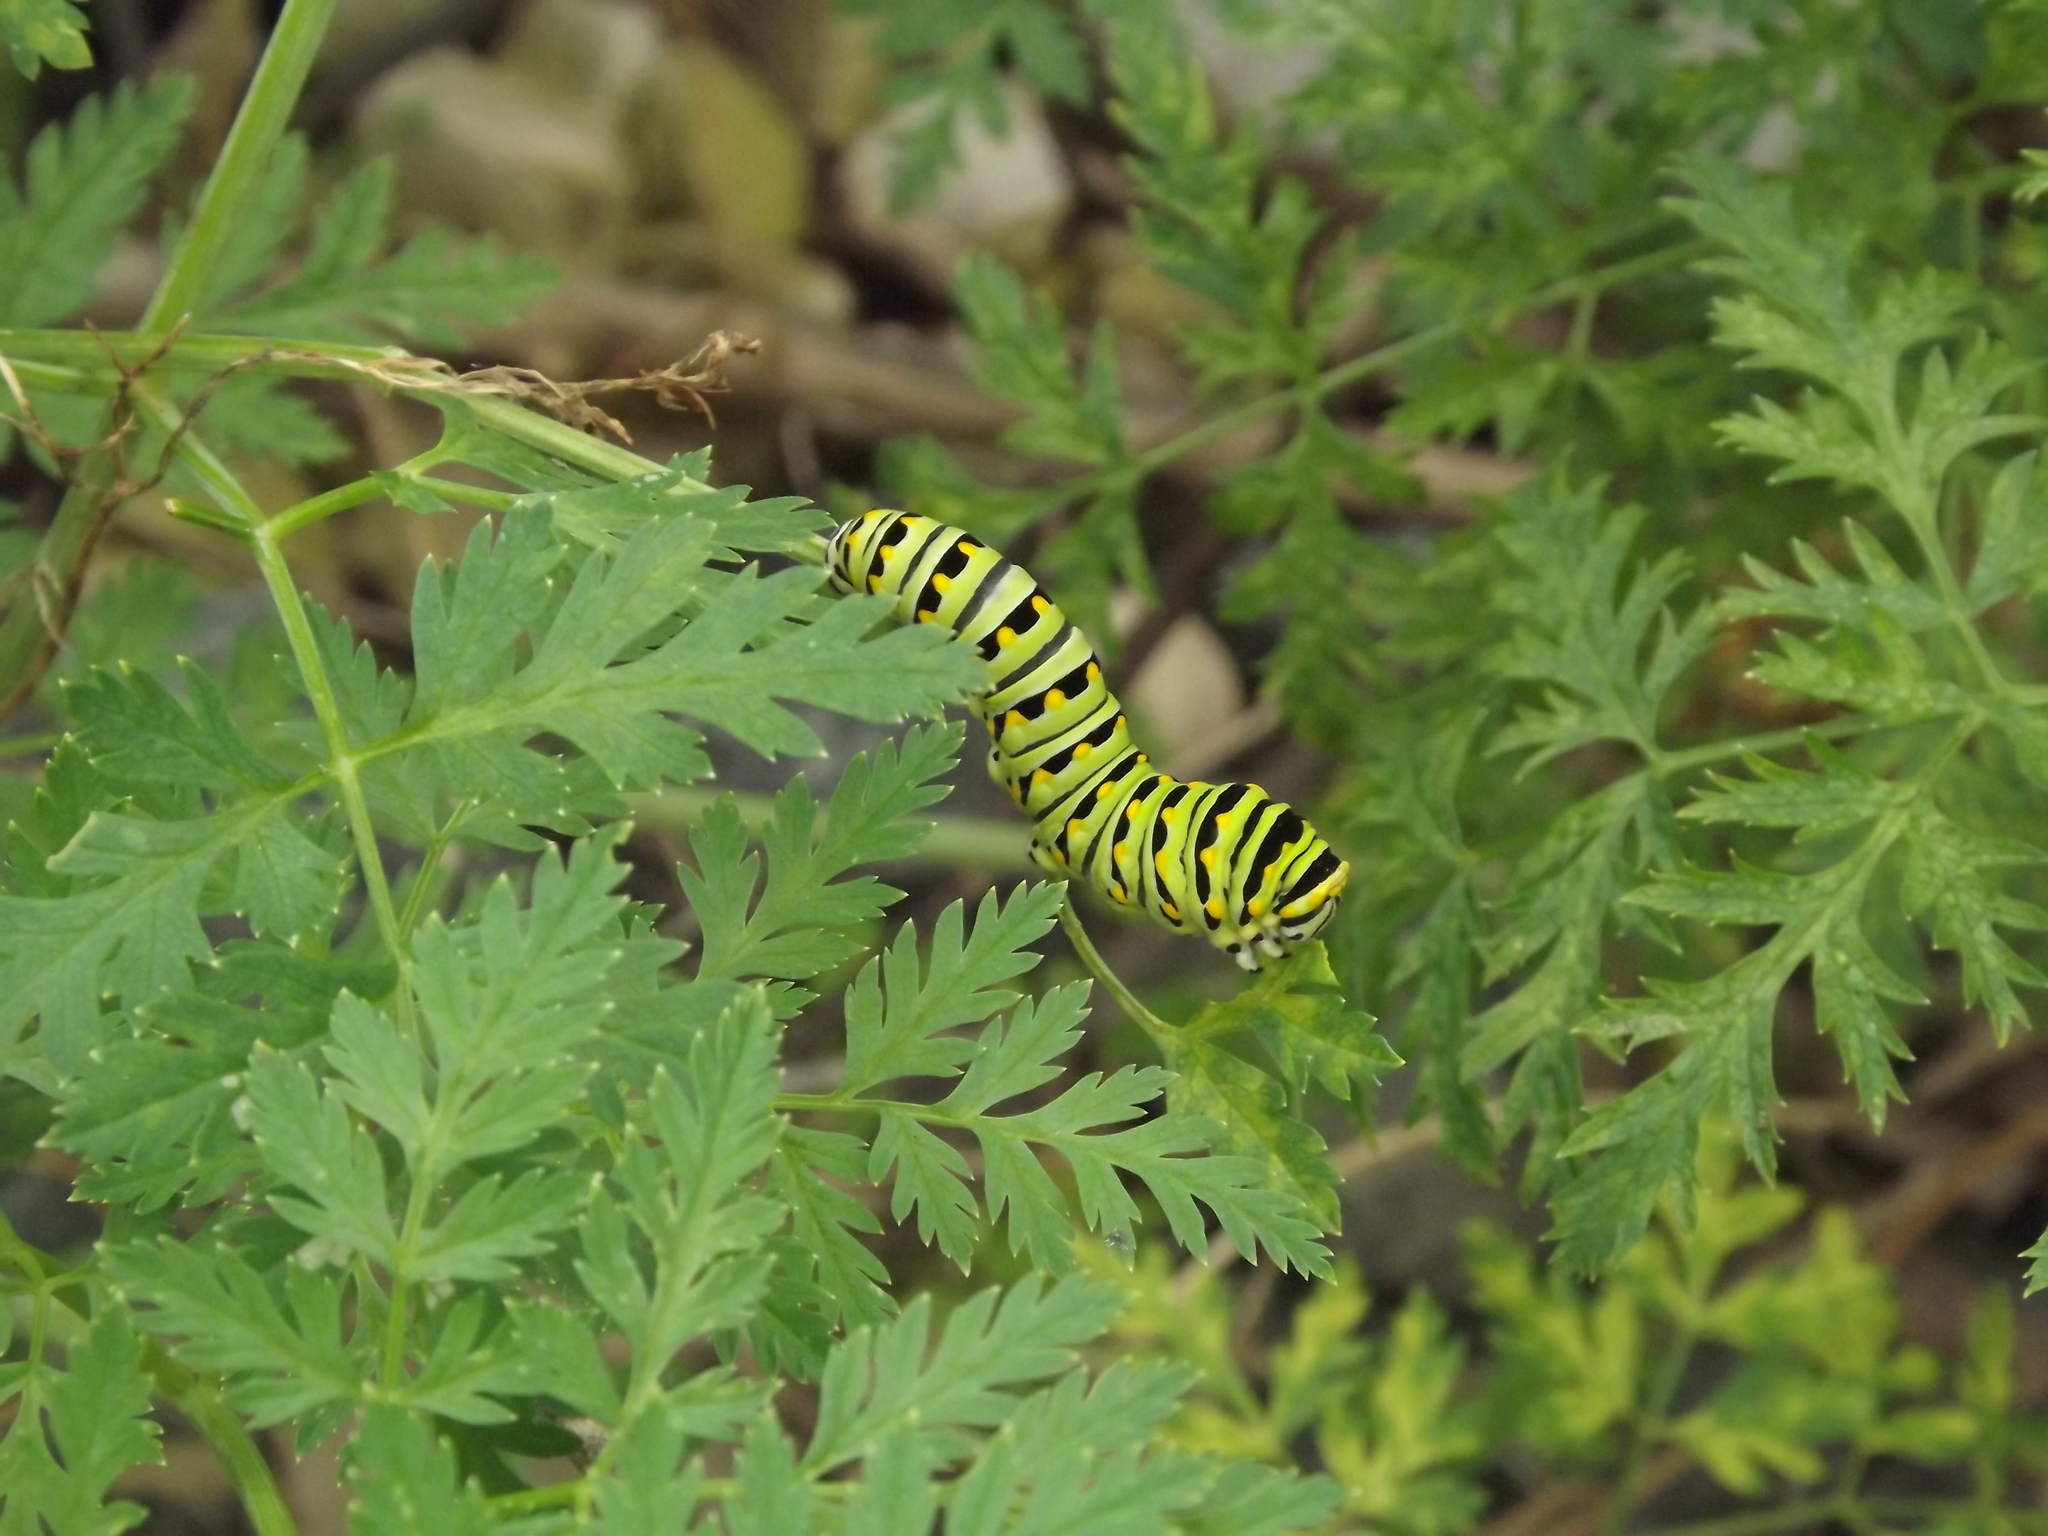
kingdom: Animalia
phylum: Arthropoda
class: Insecta
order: Lepidoptera
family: Papilionidae
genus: Papilio
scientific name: Papilio polyxenes
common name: Black swallowtail
